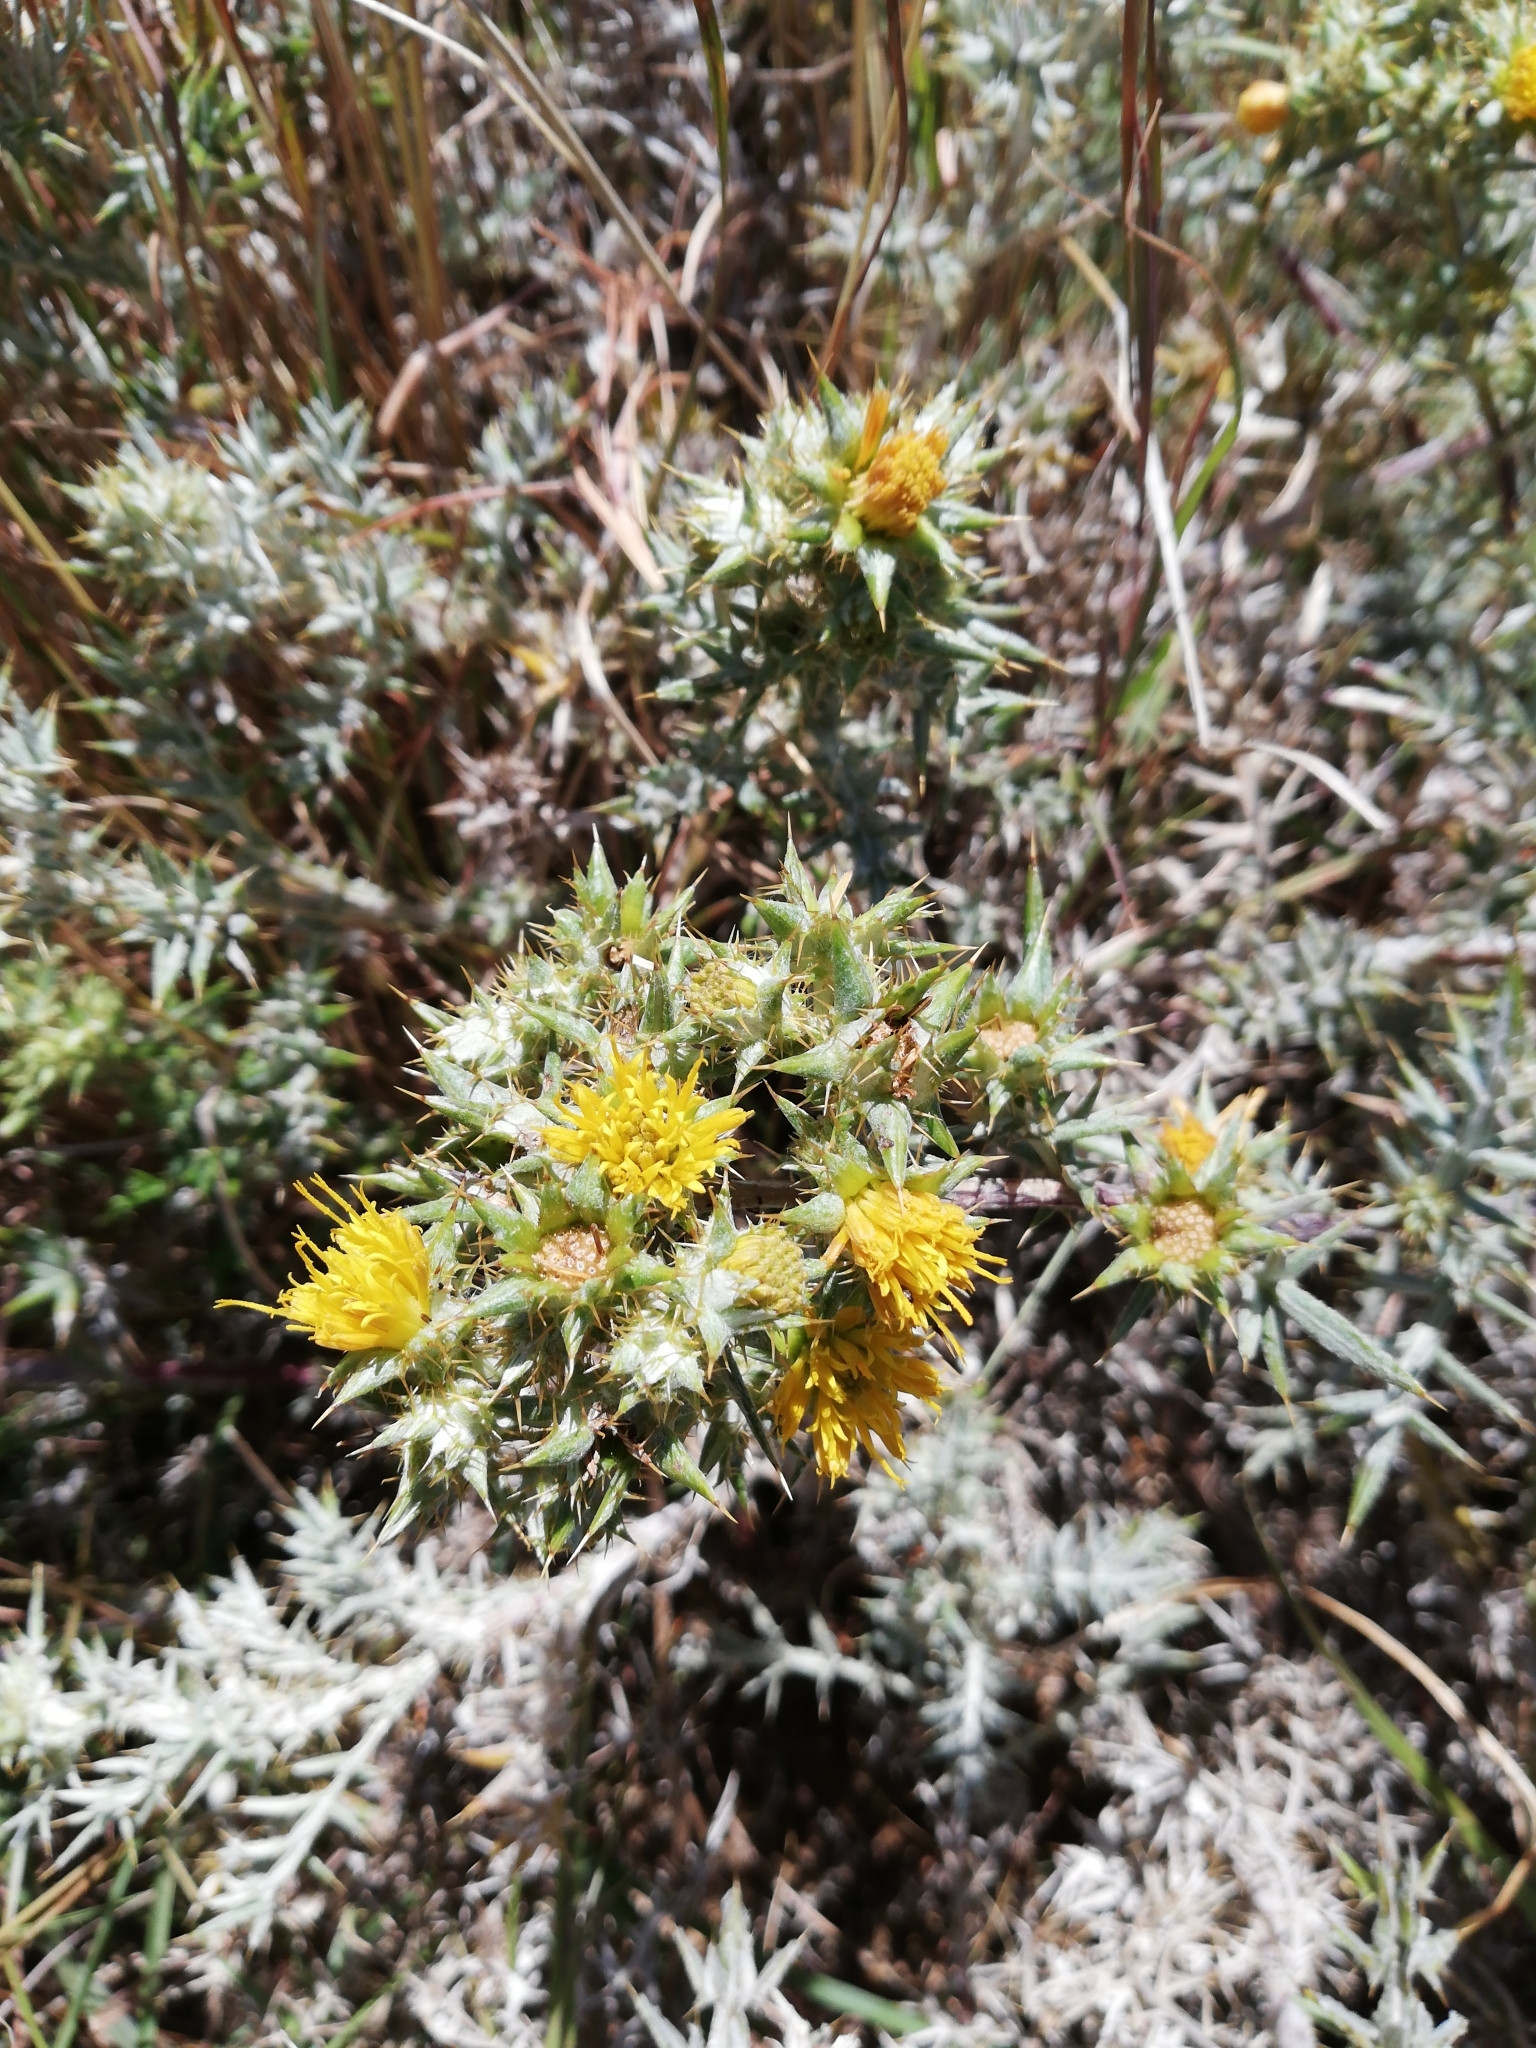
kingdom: Plantae
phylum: Tracheophyta
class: Magnoliopsida
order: Asterales
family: Asteraceae
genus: Berkheya
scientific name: Berkheya rigida
